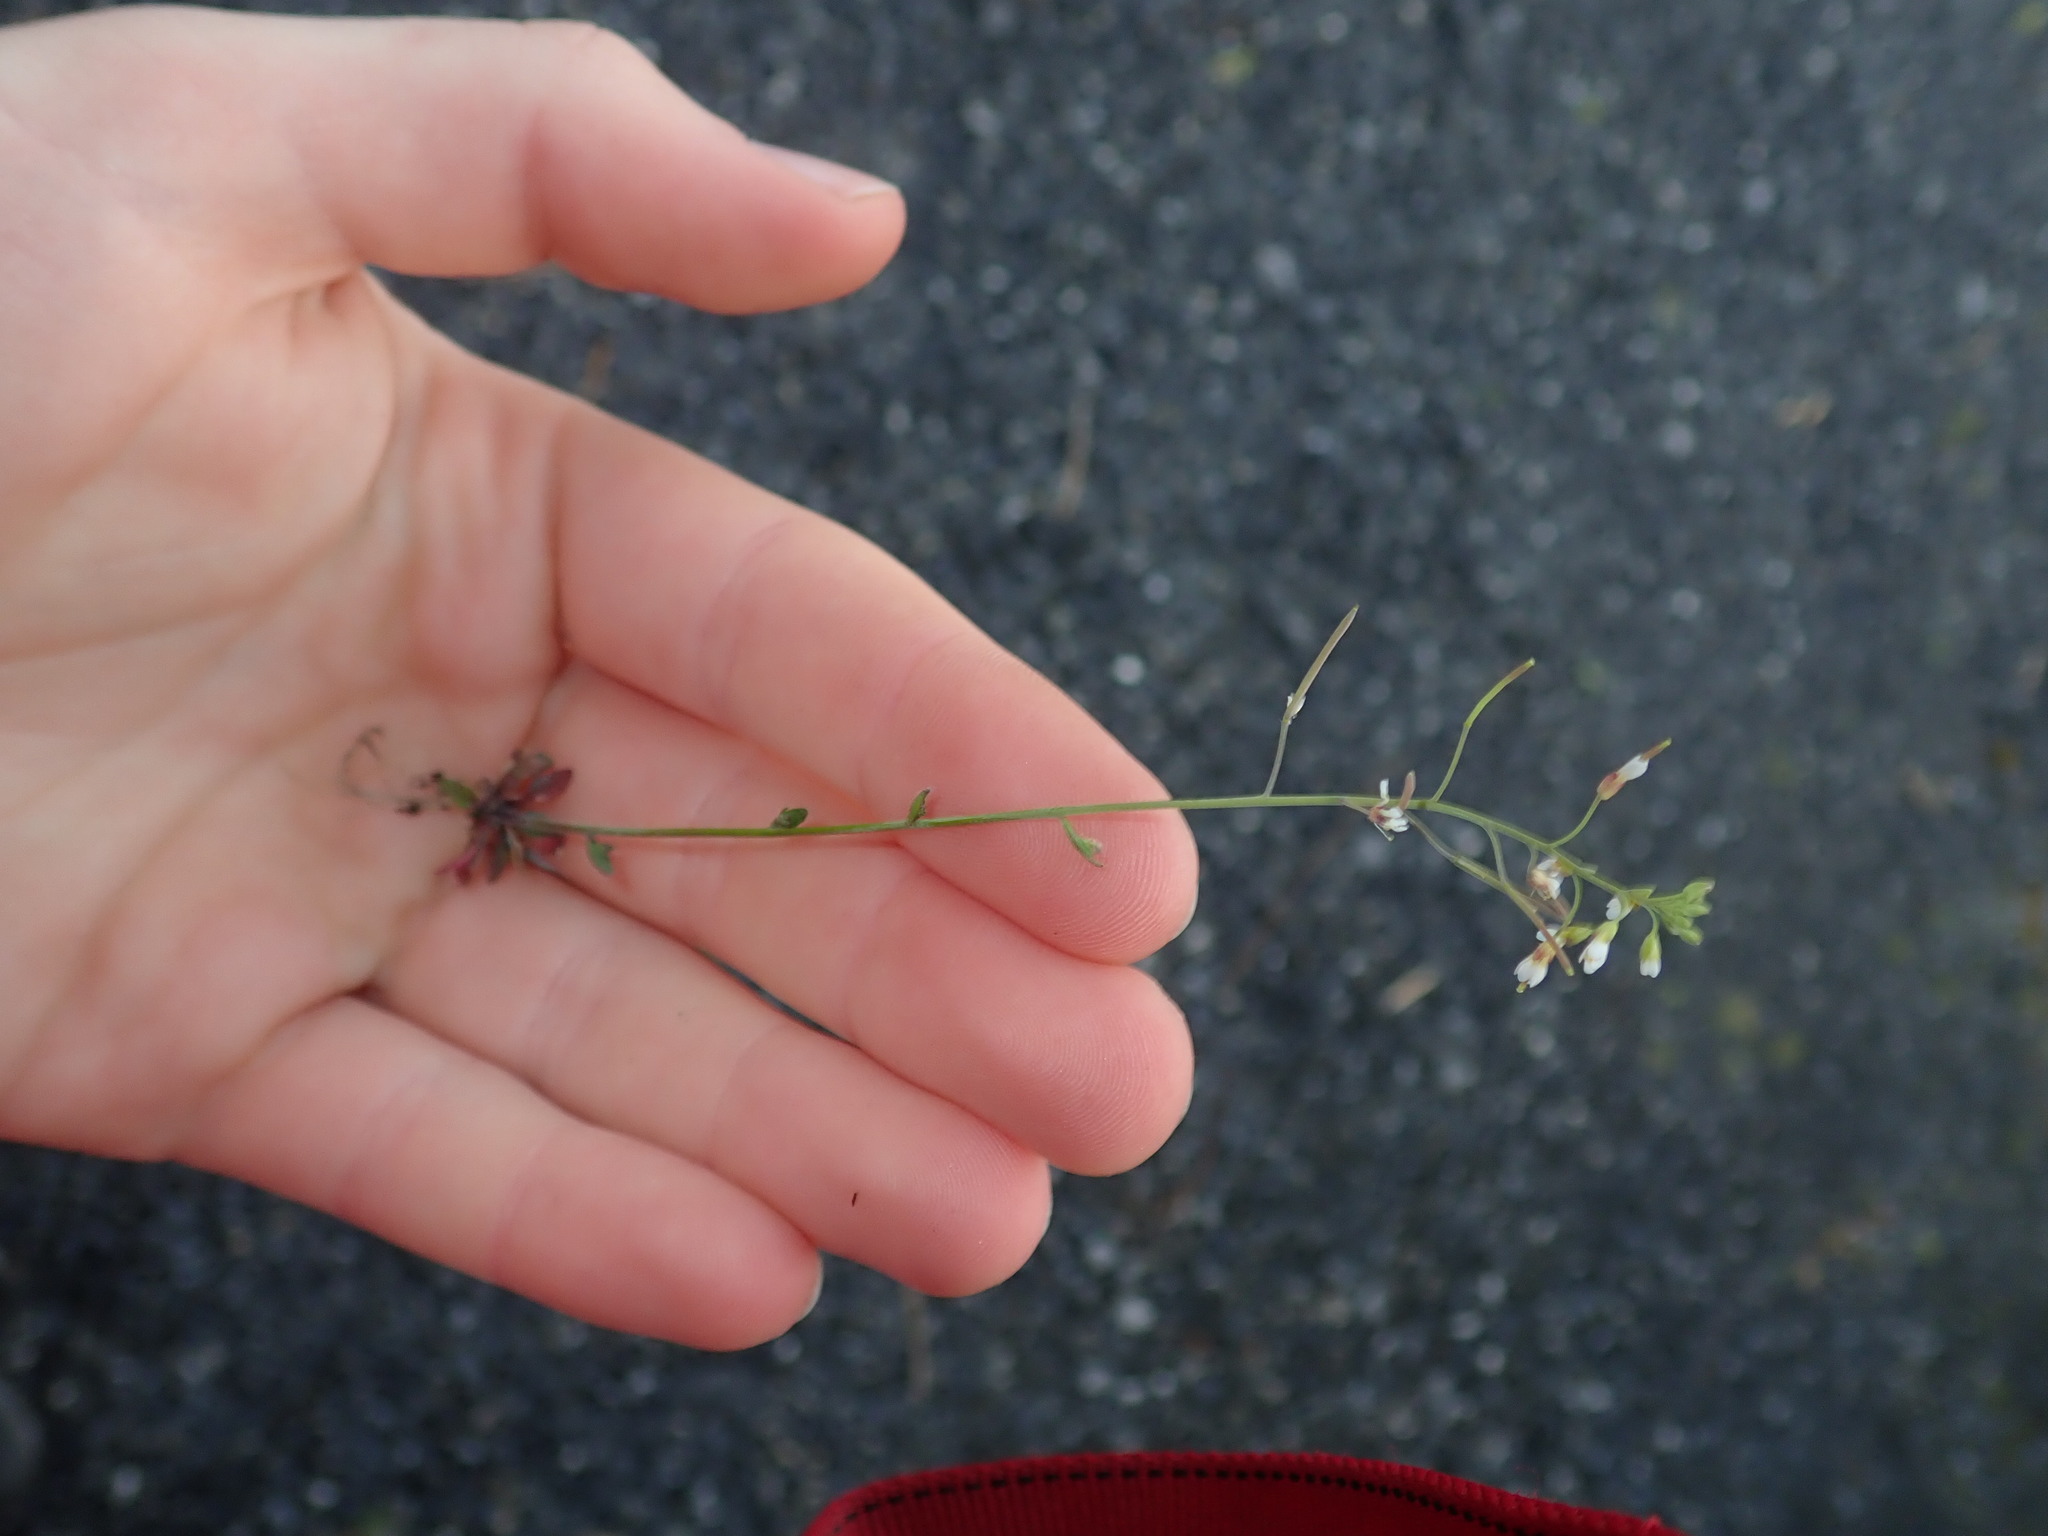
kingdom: Plantae
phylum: Tracheophyta
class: Magnoliopsida
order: Brassicales
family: Brassicaceae
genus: Arabidopsis
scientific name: Arabidopsis thaliana
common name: Thale cress
